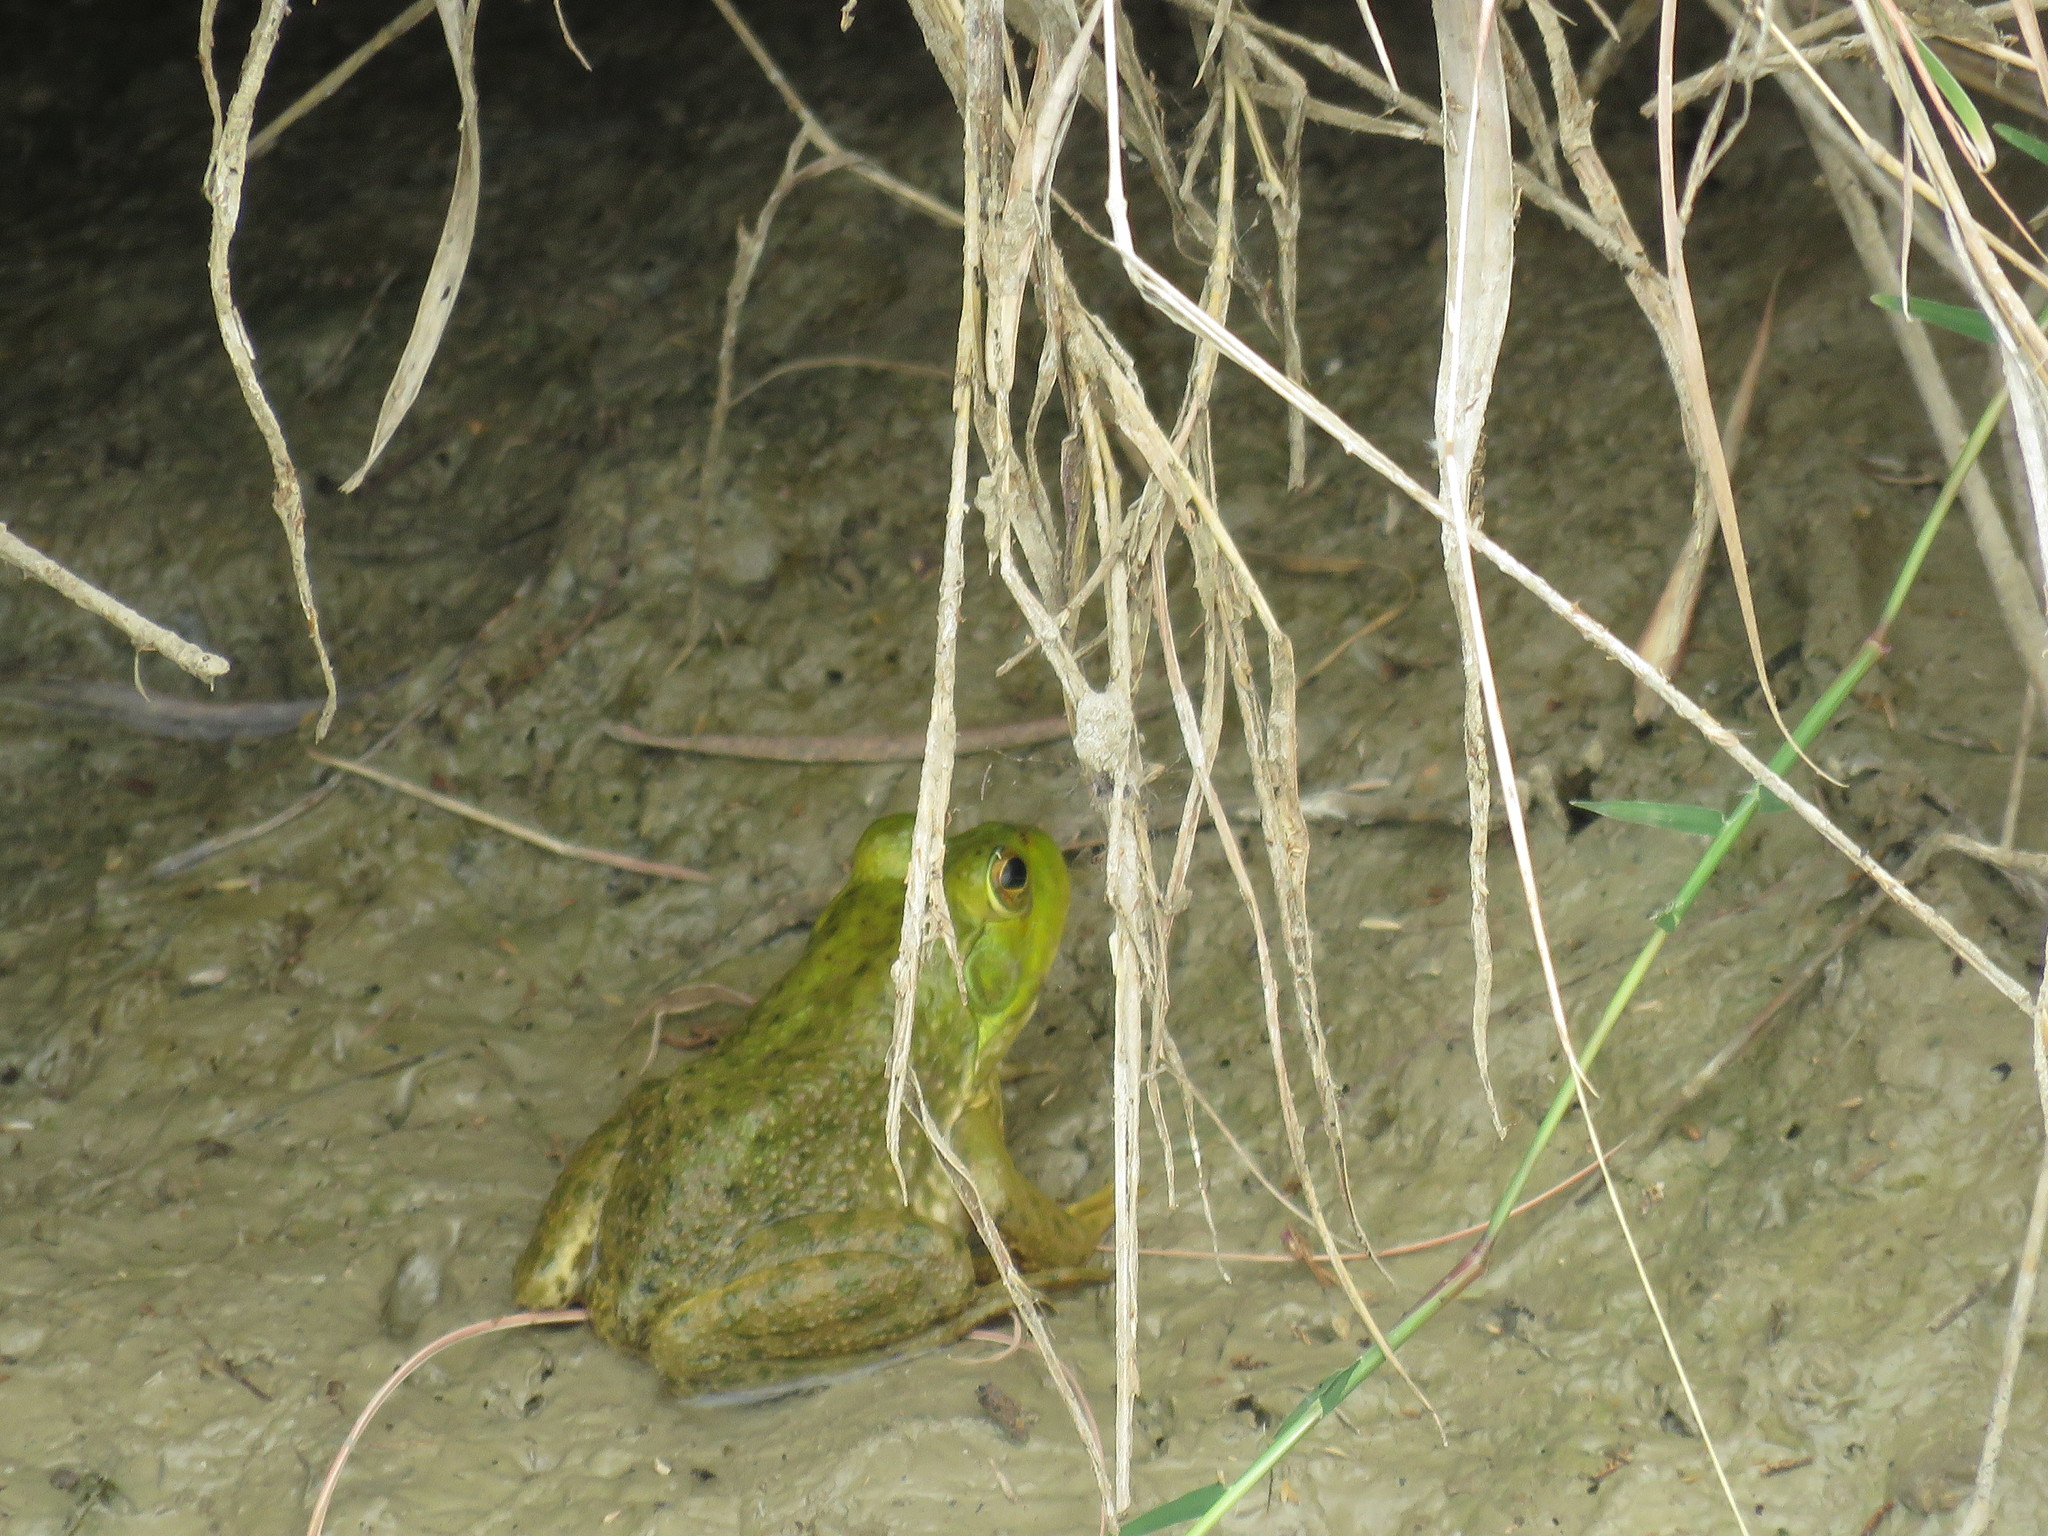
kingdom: Animalia
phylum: Chordata
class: Amphibia
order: Anura
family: Ranidae
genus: Lithobates
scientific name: Lithobates catesbeianus
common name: American bullfrog
